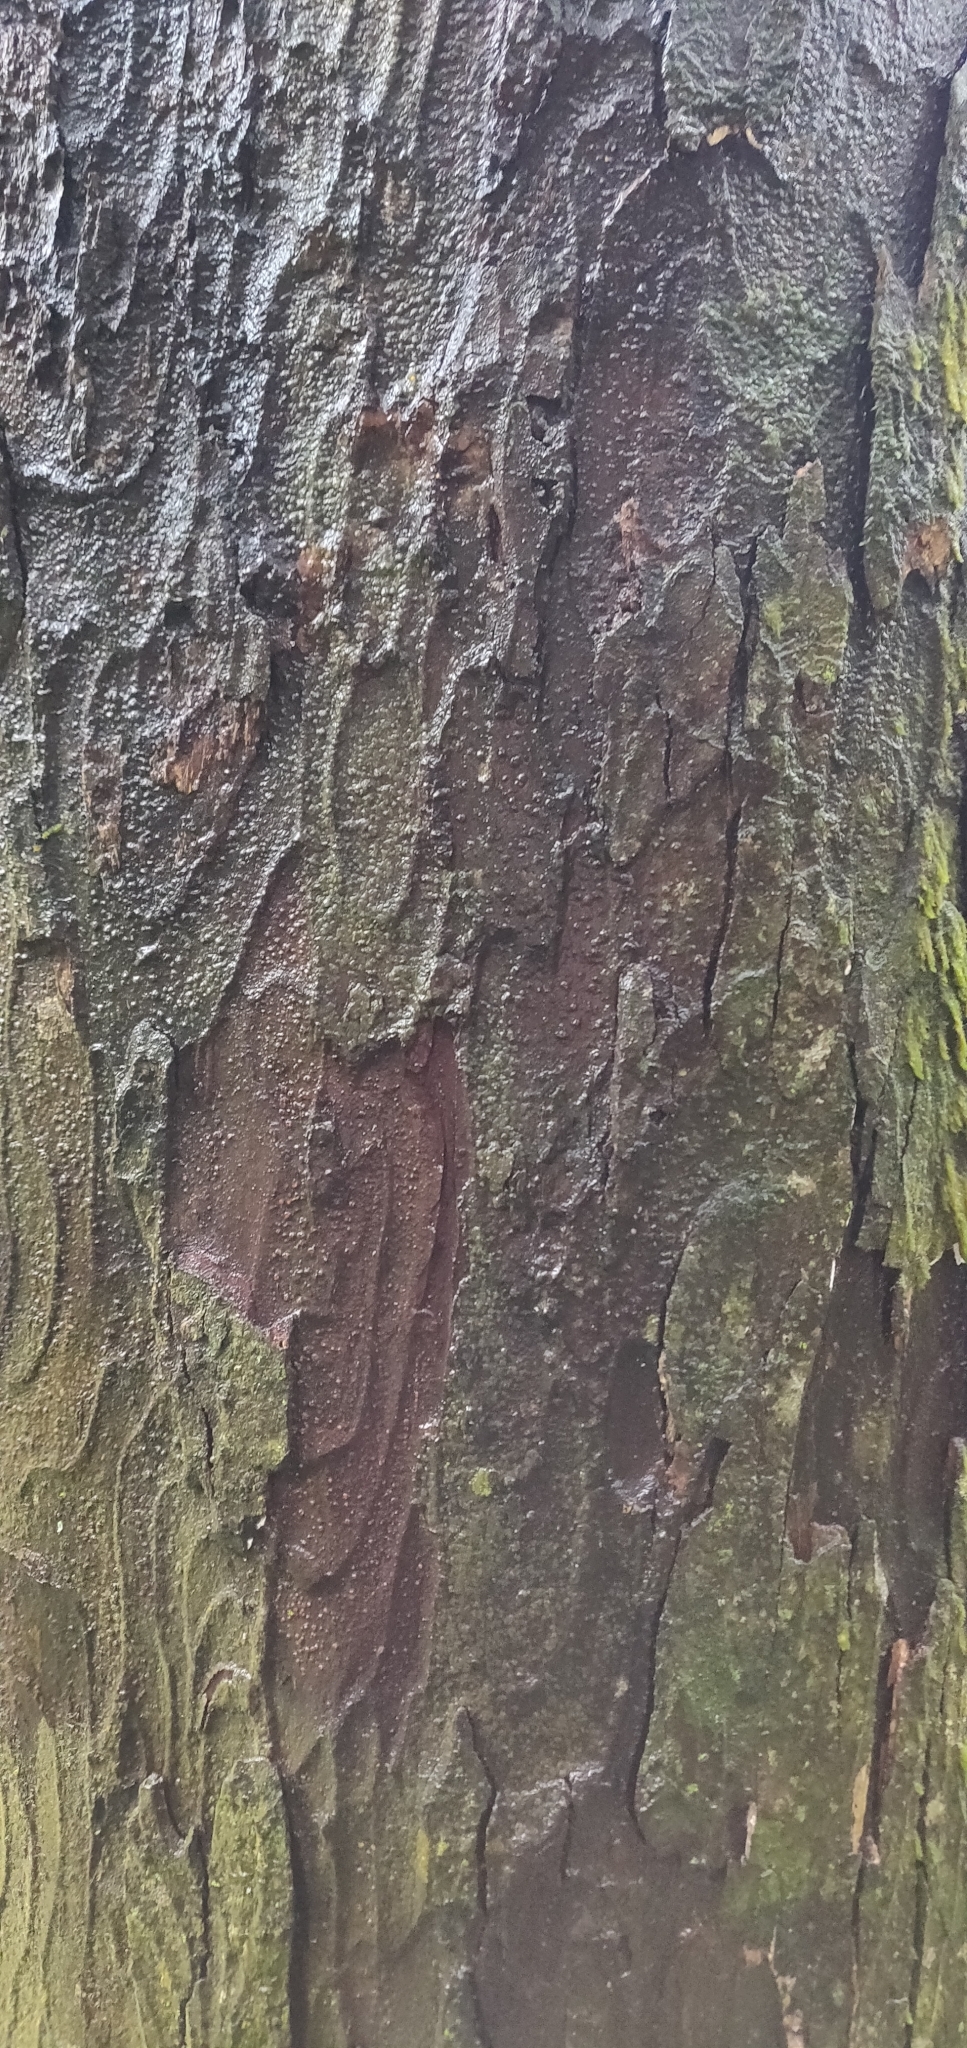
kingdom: Plantae
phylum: Tracheophyta
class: Pinopsida
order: Pinales
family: Podocarpaceae
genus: Dacrydium
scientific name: Dacrydium cupressinum
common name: Red pine
